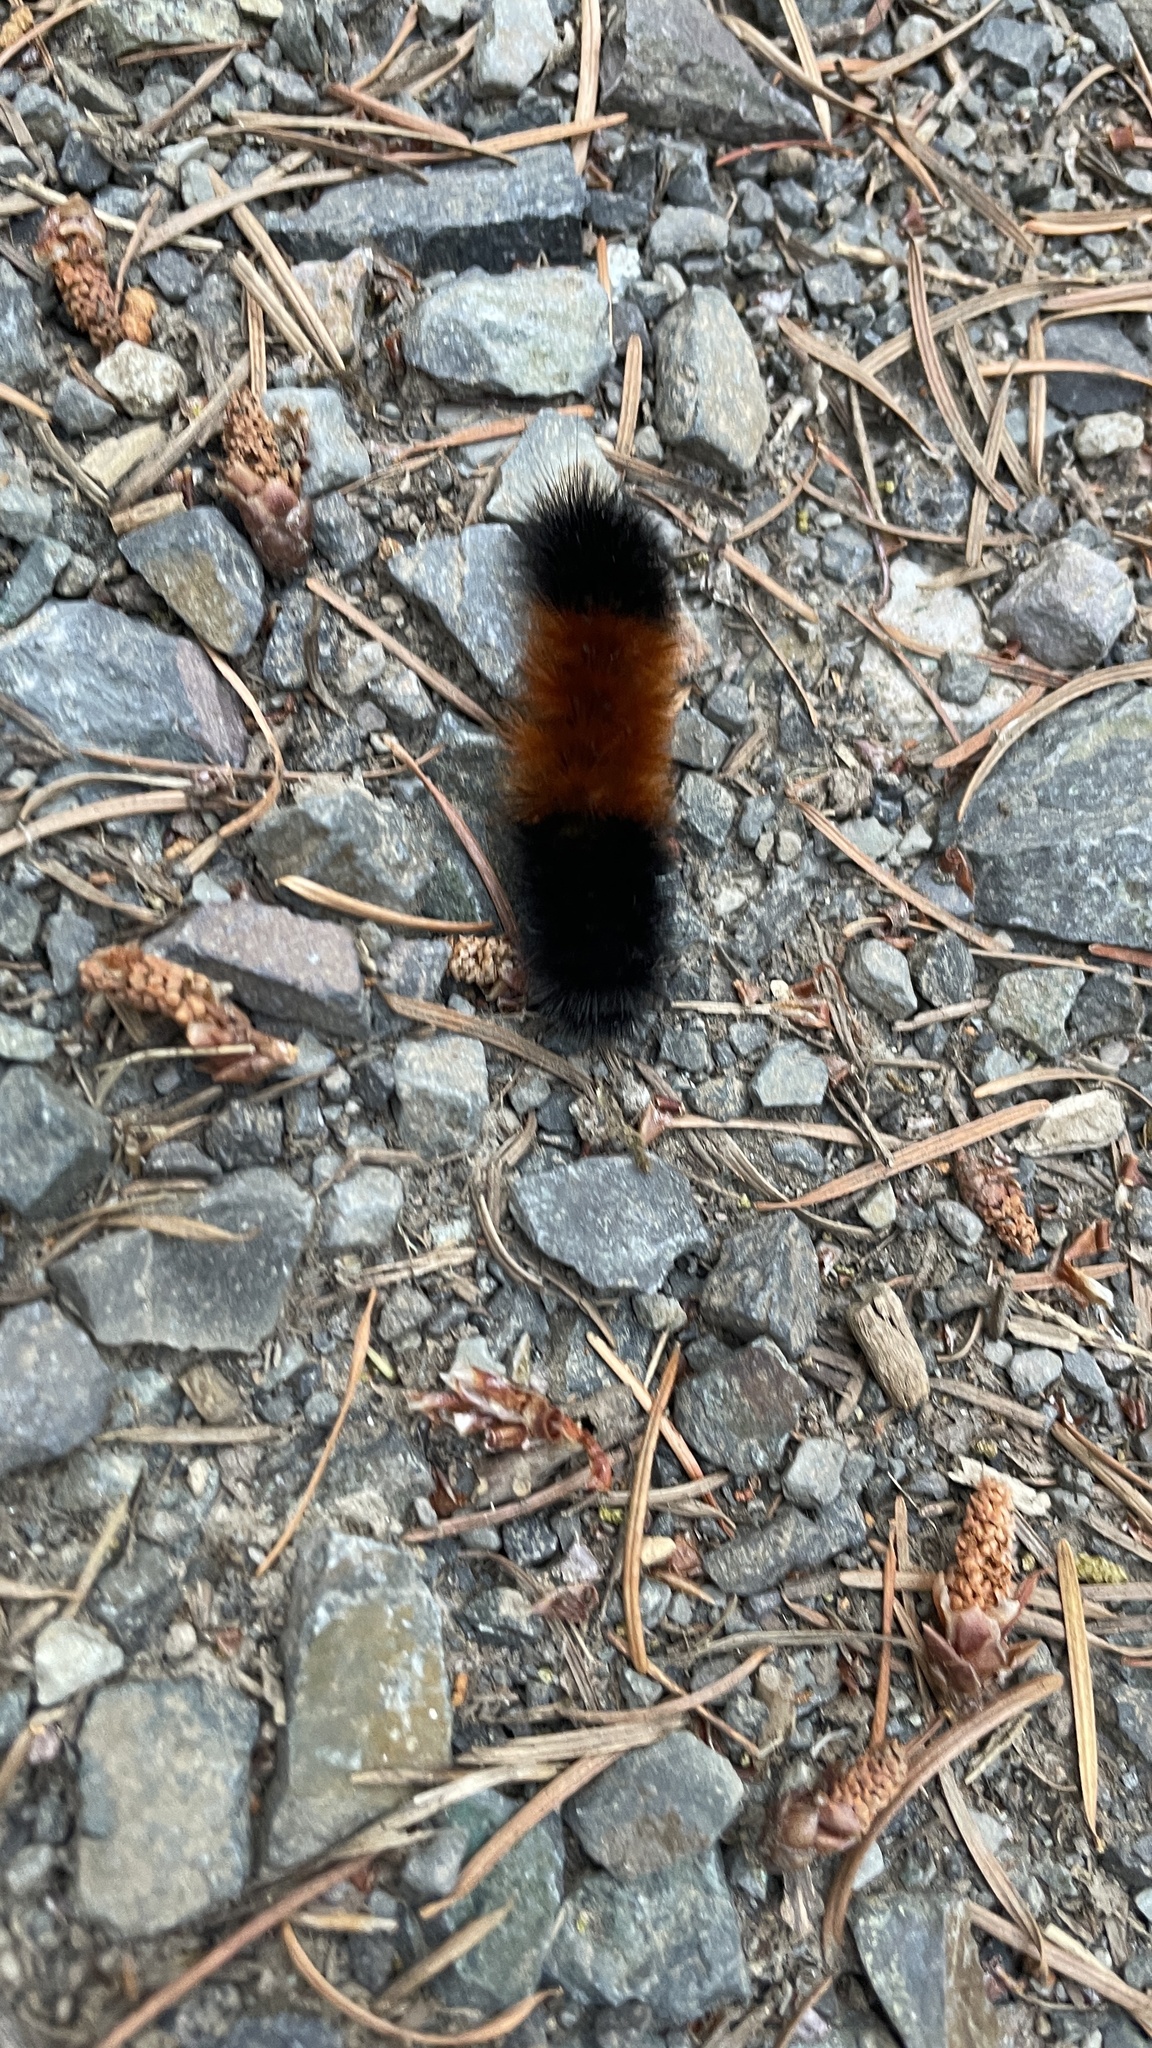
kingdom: Animalia
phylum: Arthropoda
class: Insecta
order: Lepidoptera
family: Erebidae
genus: Pyrrharctia
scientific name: Pyrrharctia isabella
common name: Isabella tiger moth
